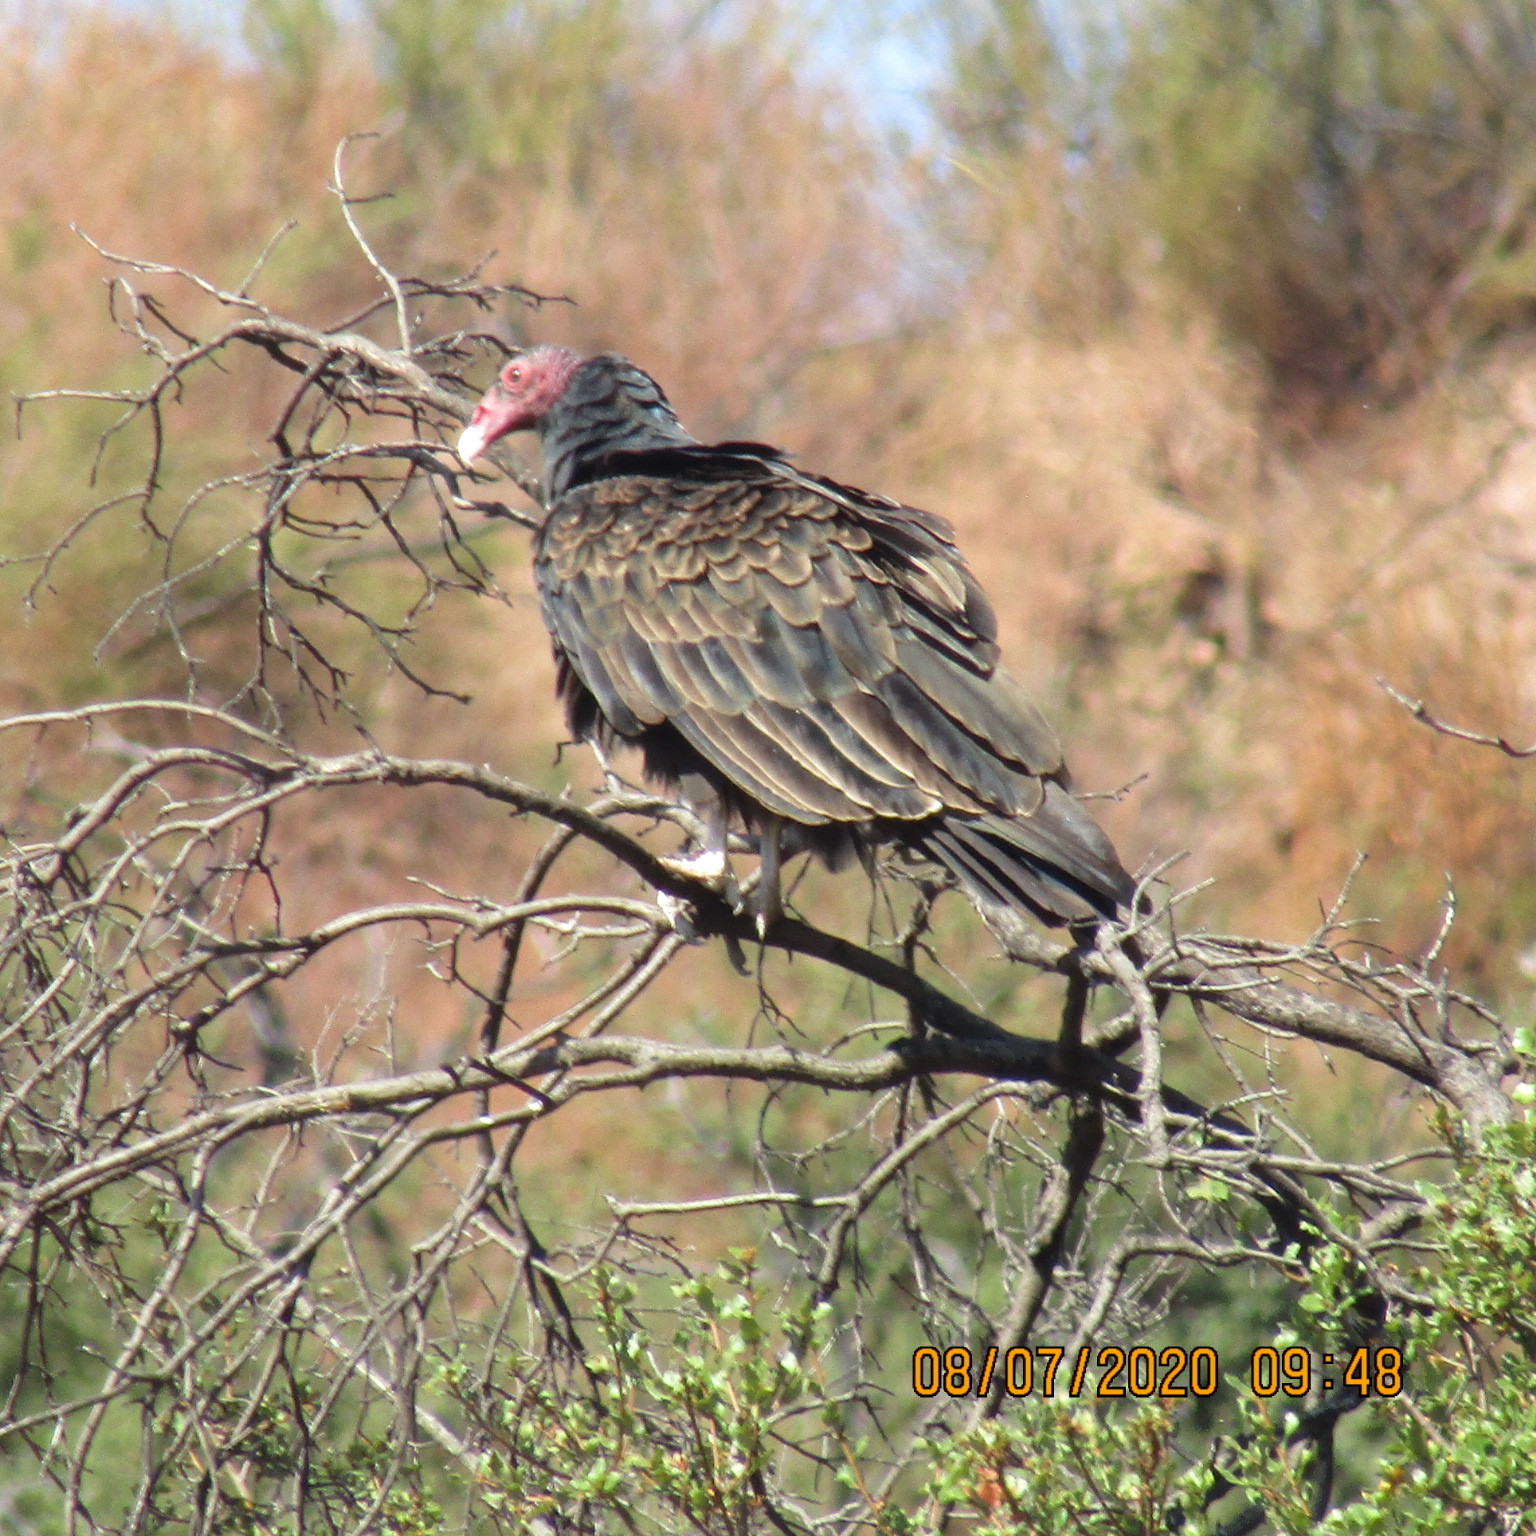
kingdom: Animalia
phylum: Chordata
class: Aves
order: Accipitriformes
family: Cathartidae
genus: Cathartes
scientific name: Cathartes aura
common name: Turkey vulture
